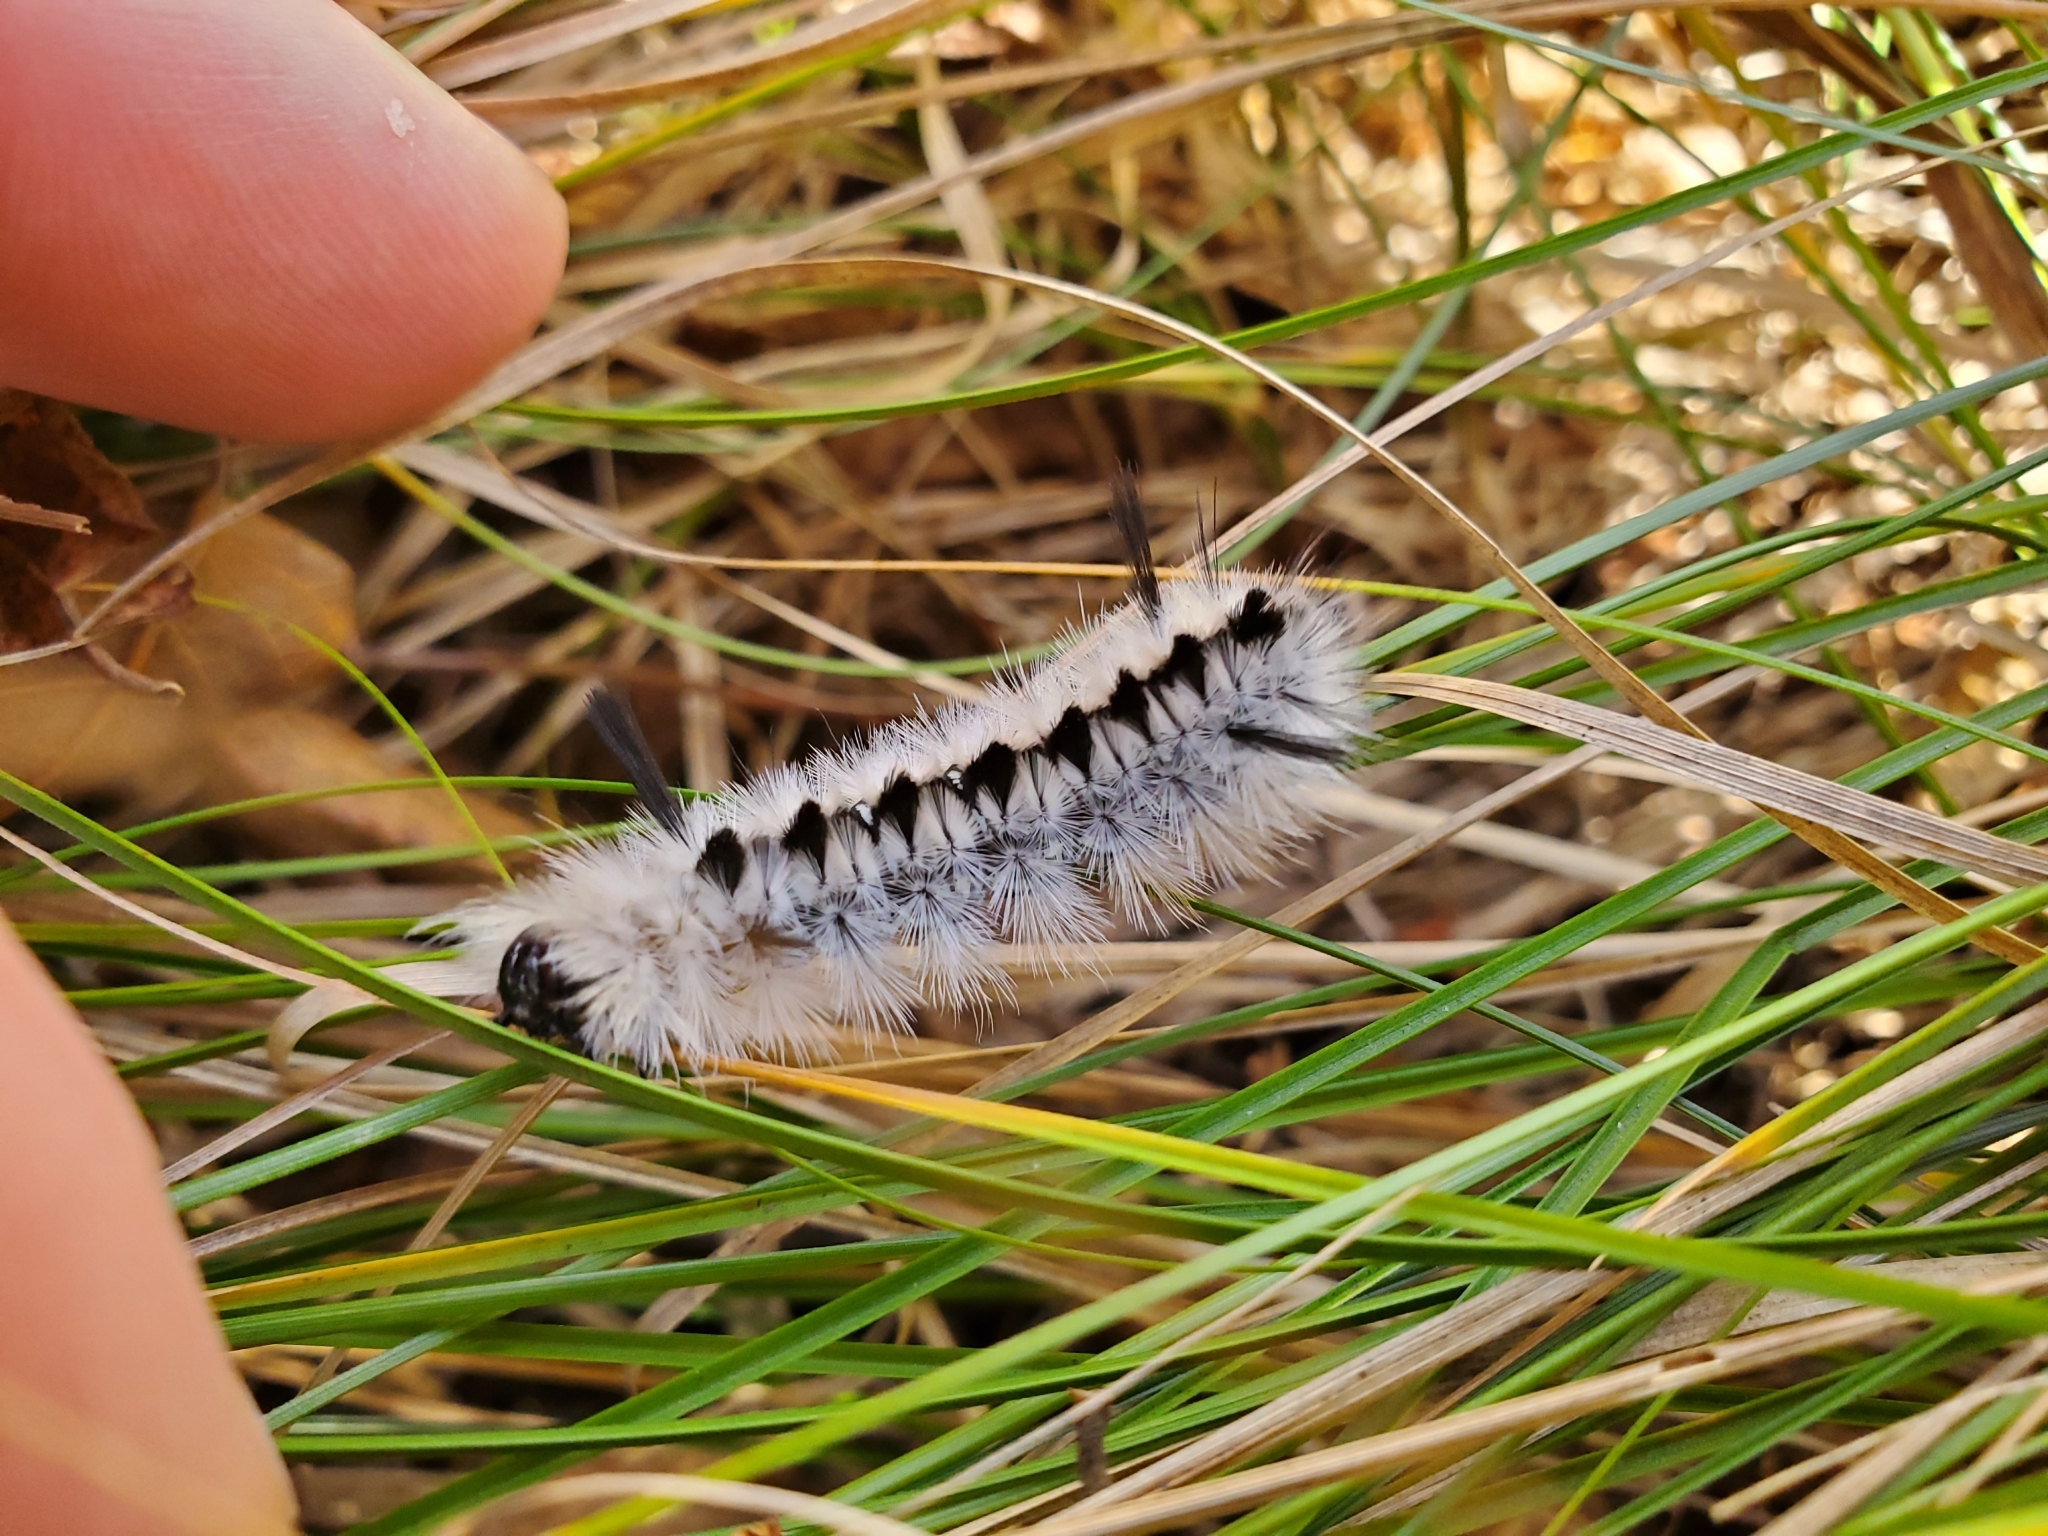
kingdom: Animalia
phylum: Arthropoda
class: Insecta
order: Lepidoptera
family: Erebidae
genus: Lophocampa
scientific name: Lophocampa caryae
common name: Hickory tussock moth
